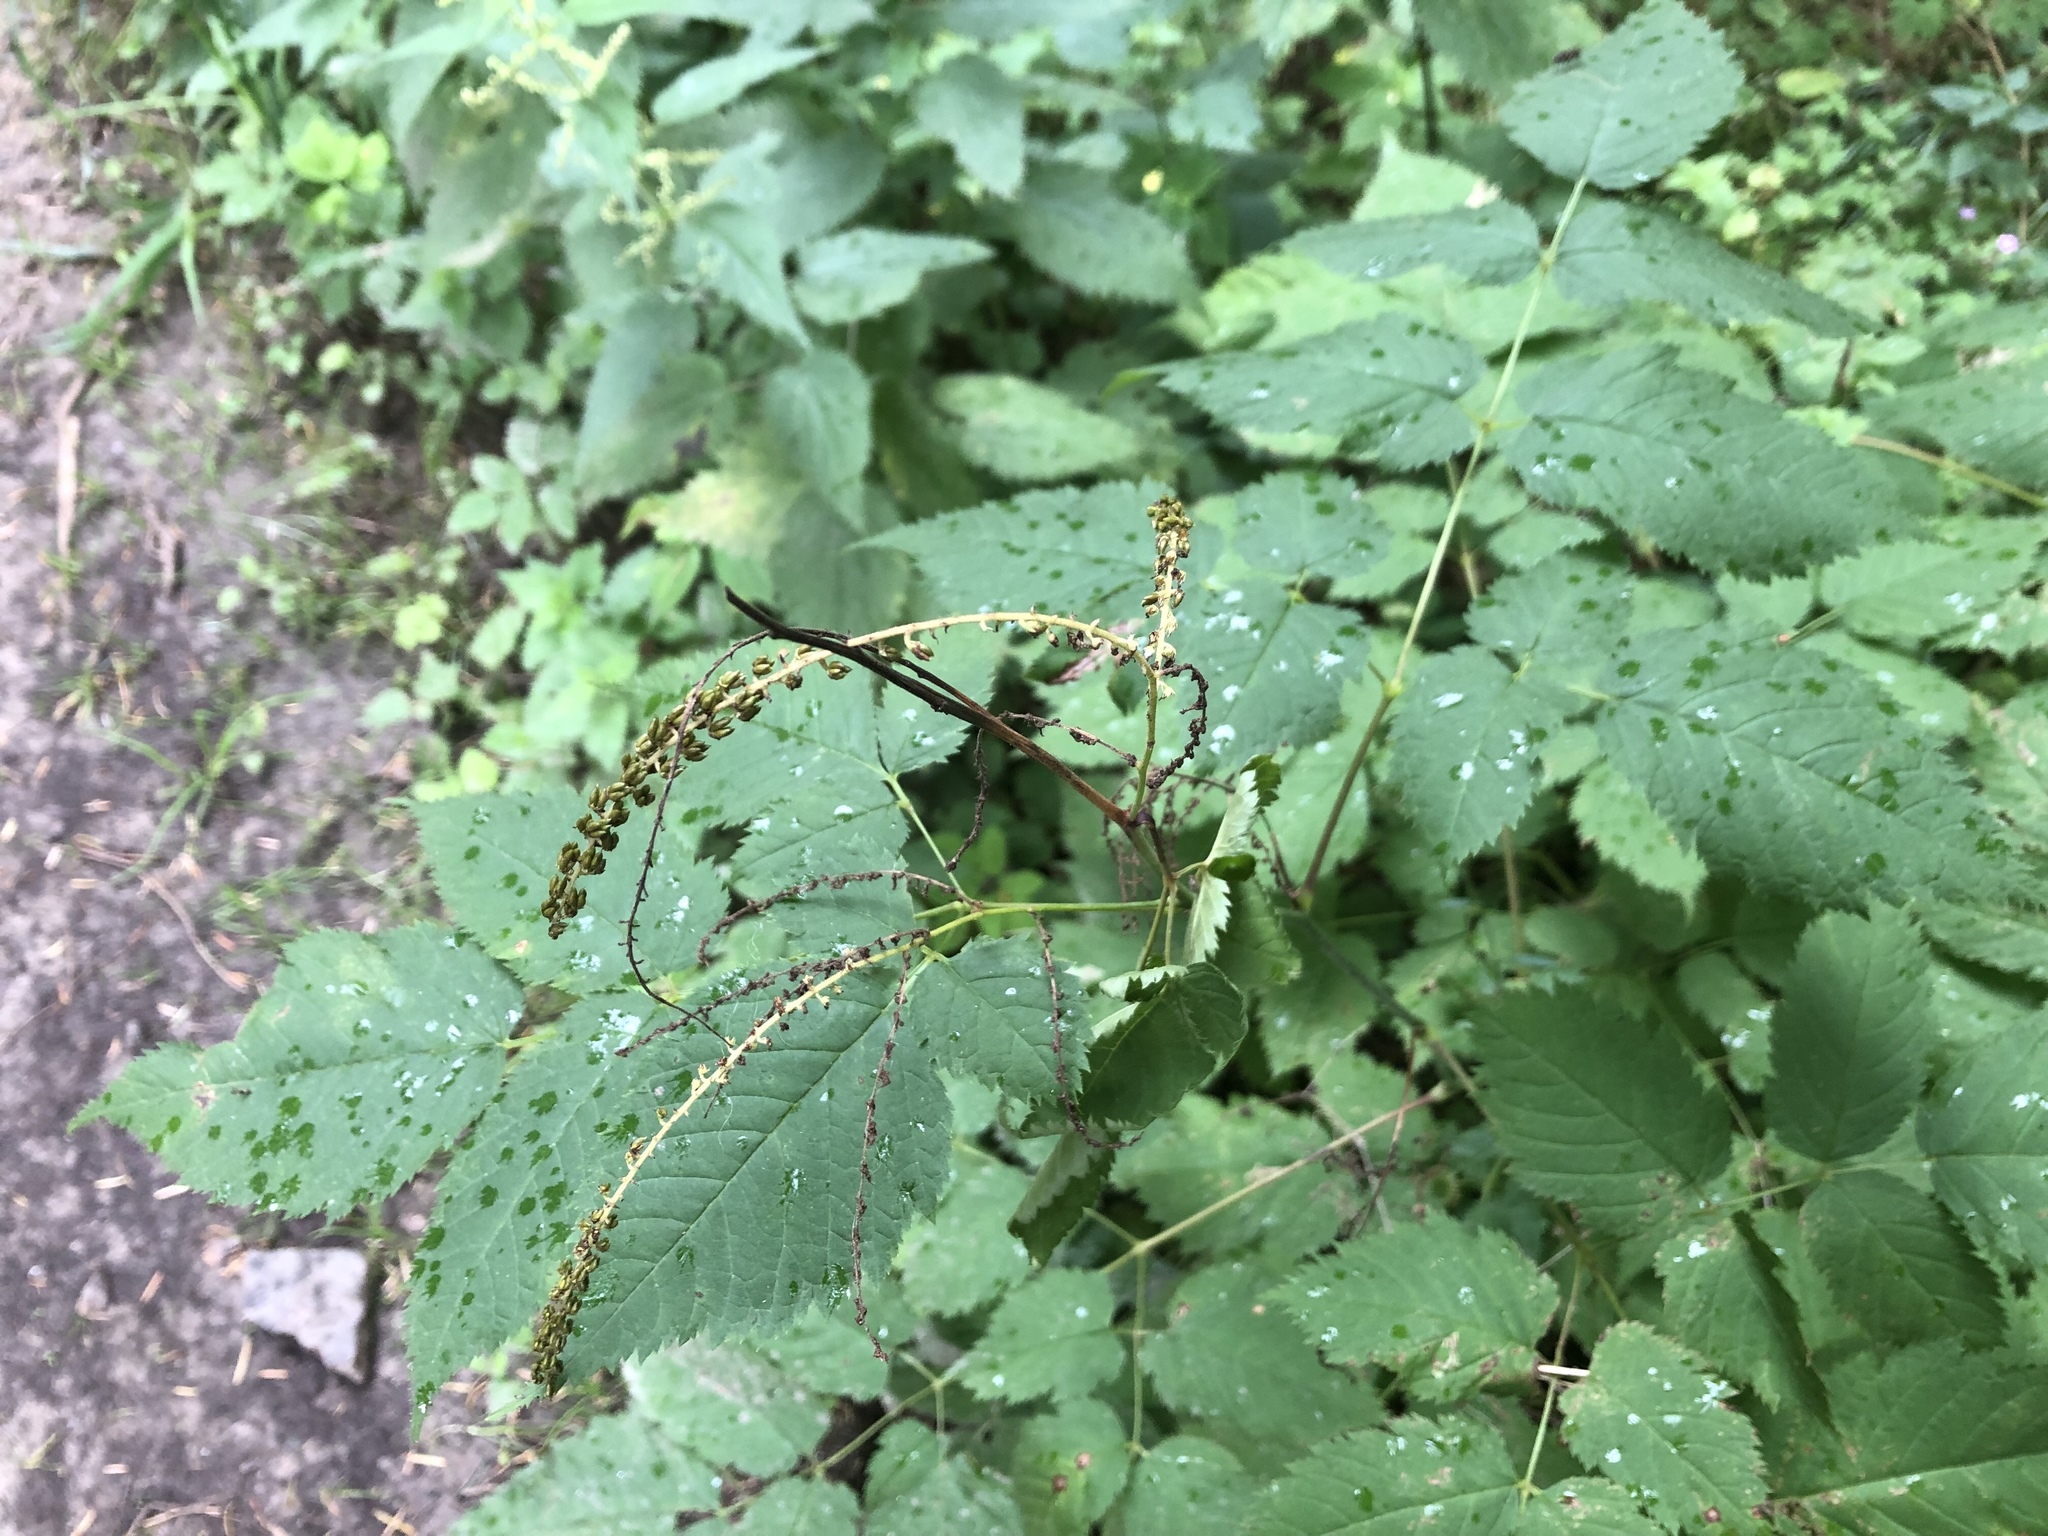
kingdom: Plantae
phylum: Tracheophyta
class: Magnoliopsida
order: Rosales
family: Rosaceae
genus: Aruncus
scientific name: Aruncus dioicus
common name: Buck's-beard
